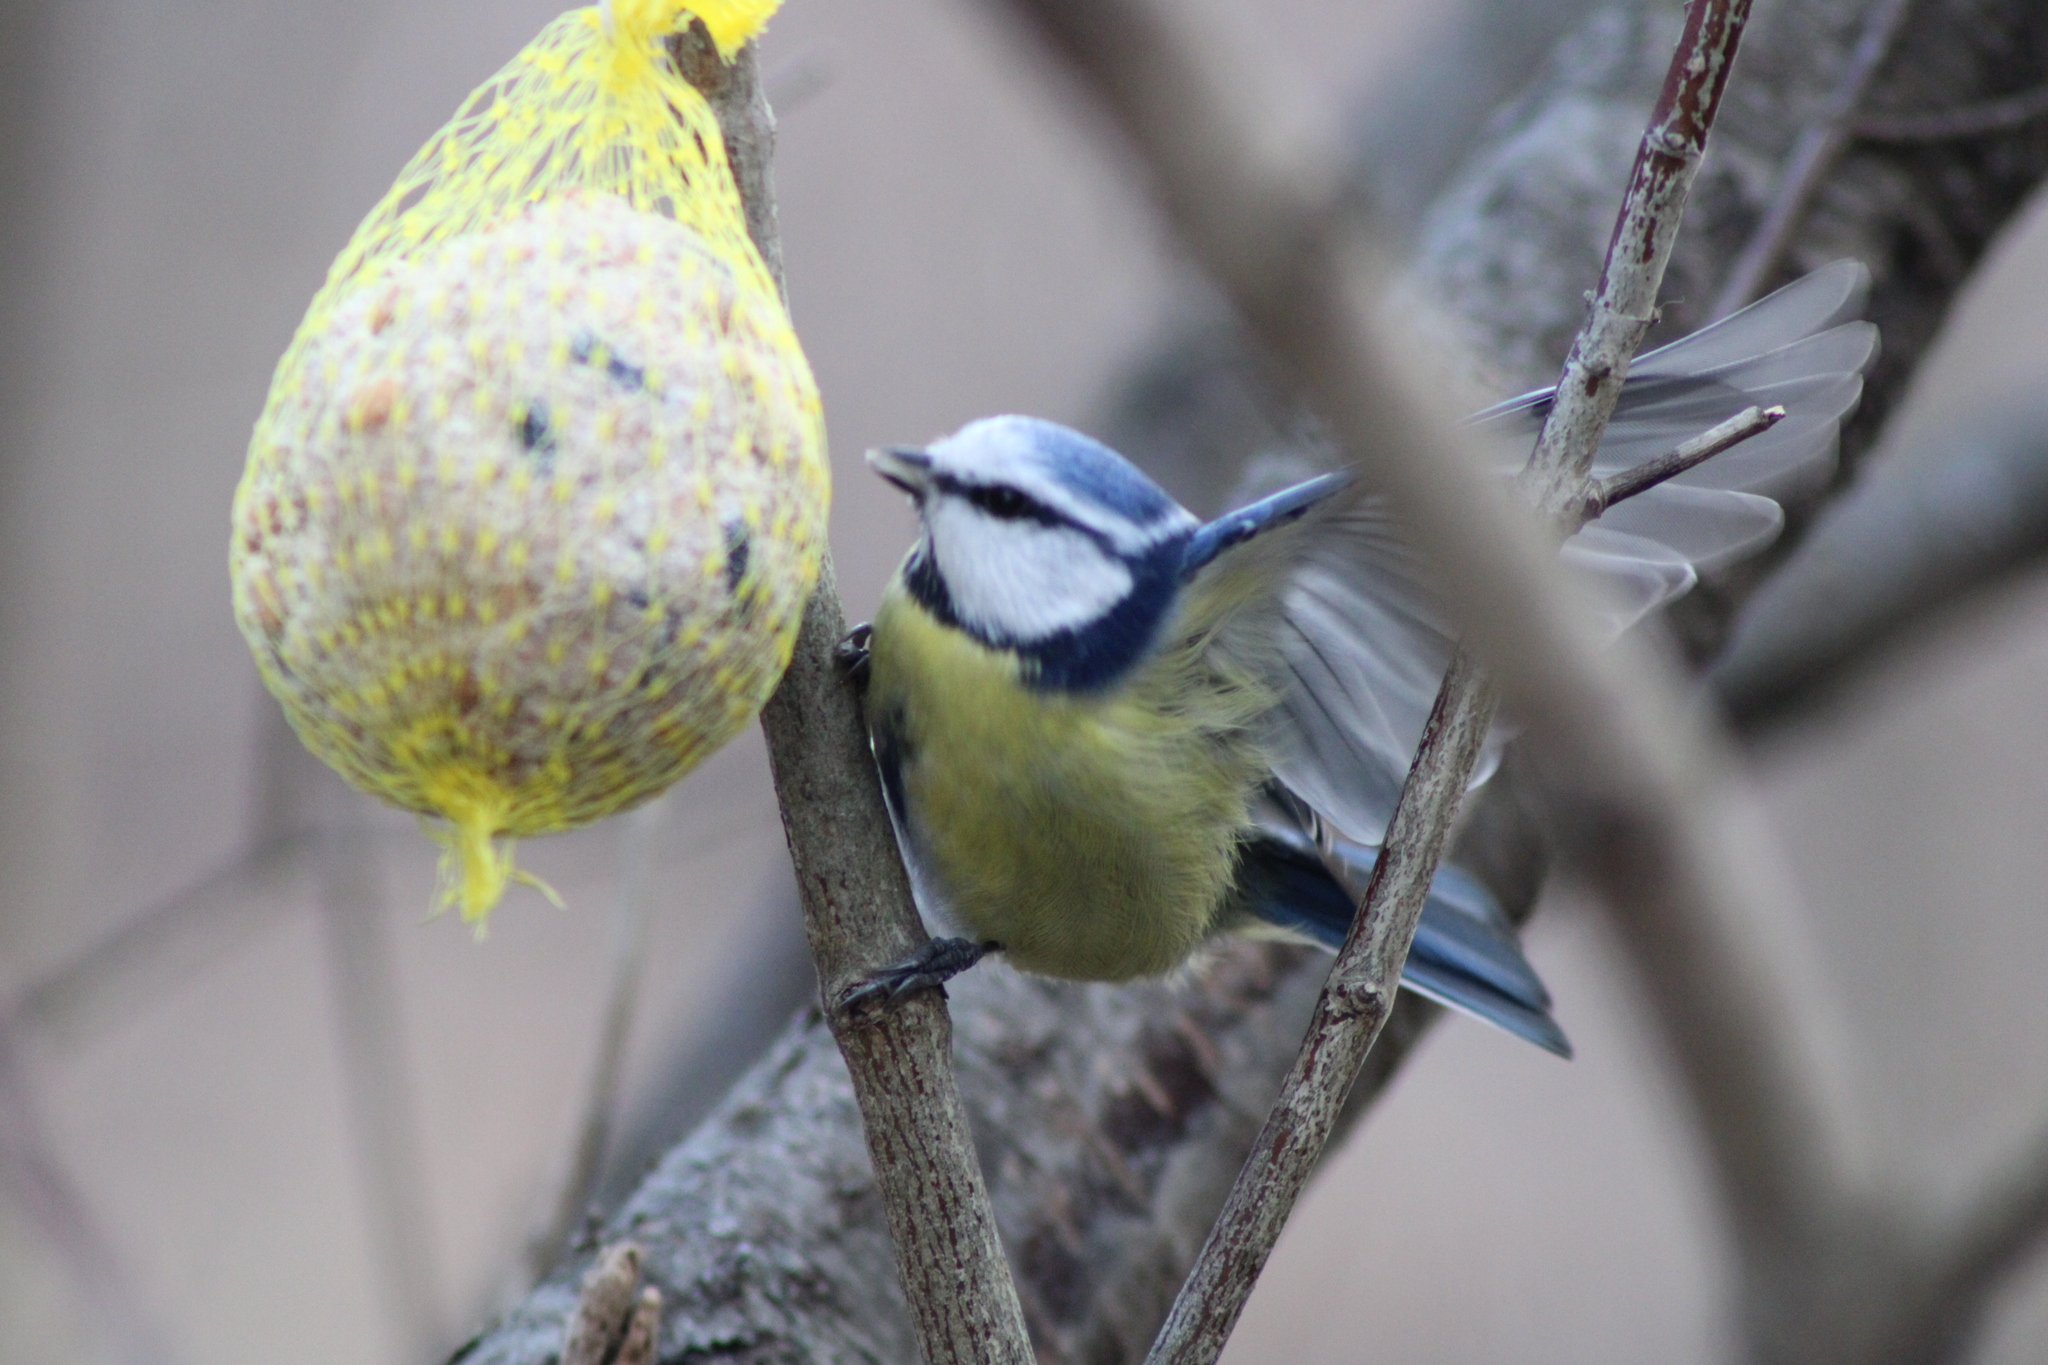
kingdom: Animalia
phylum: Chordata
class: Aves
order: Passeriformes
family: Paridae
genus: Cyanistes
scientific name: Cyanistes caeruleus
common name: Eurasian blue tit
